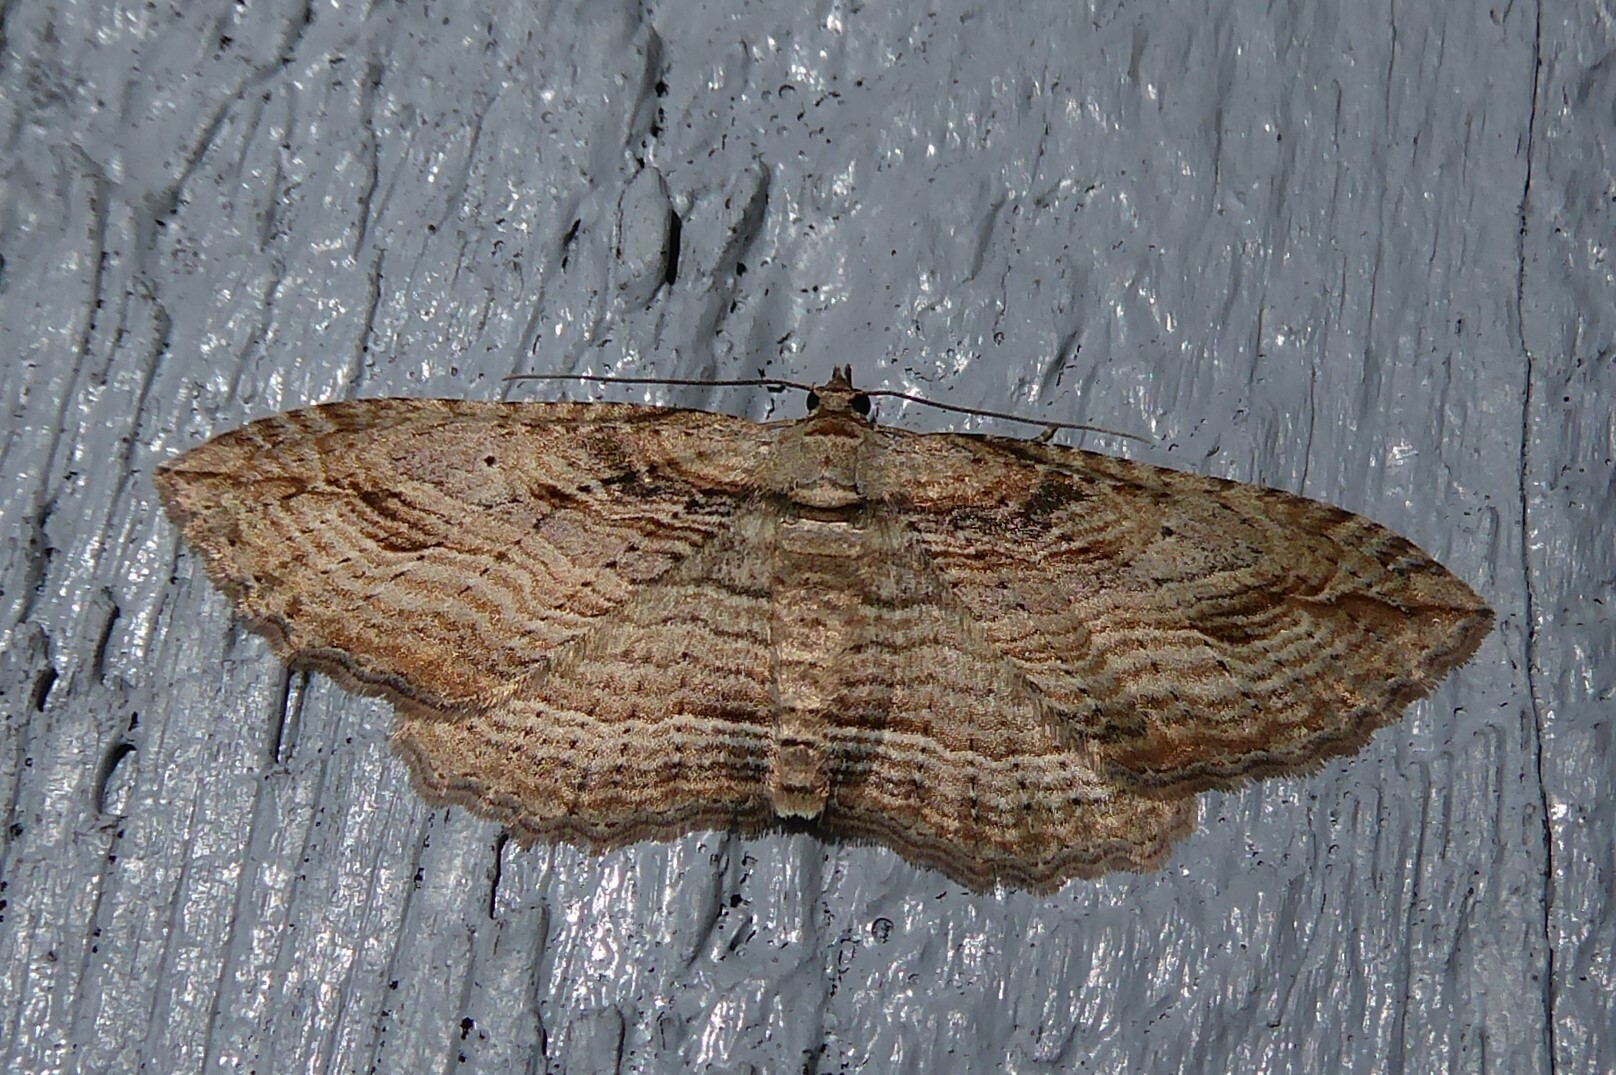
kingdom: Animalia
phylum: Arthropoda
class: Insecta
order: Lepidoptera
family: Geometridae
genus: Austrocidaria
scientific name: Austrocidaria gobiata
